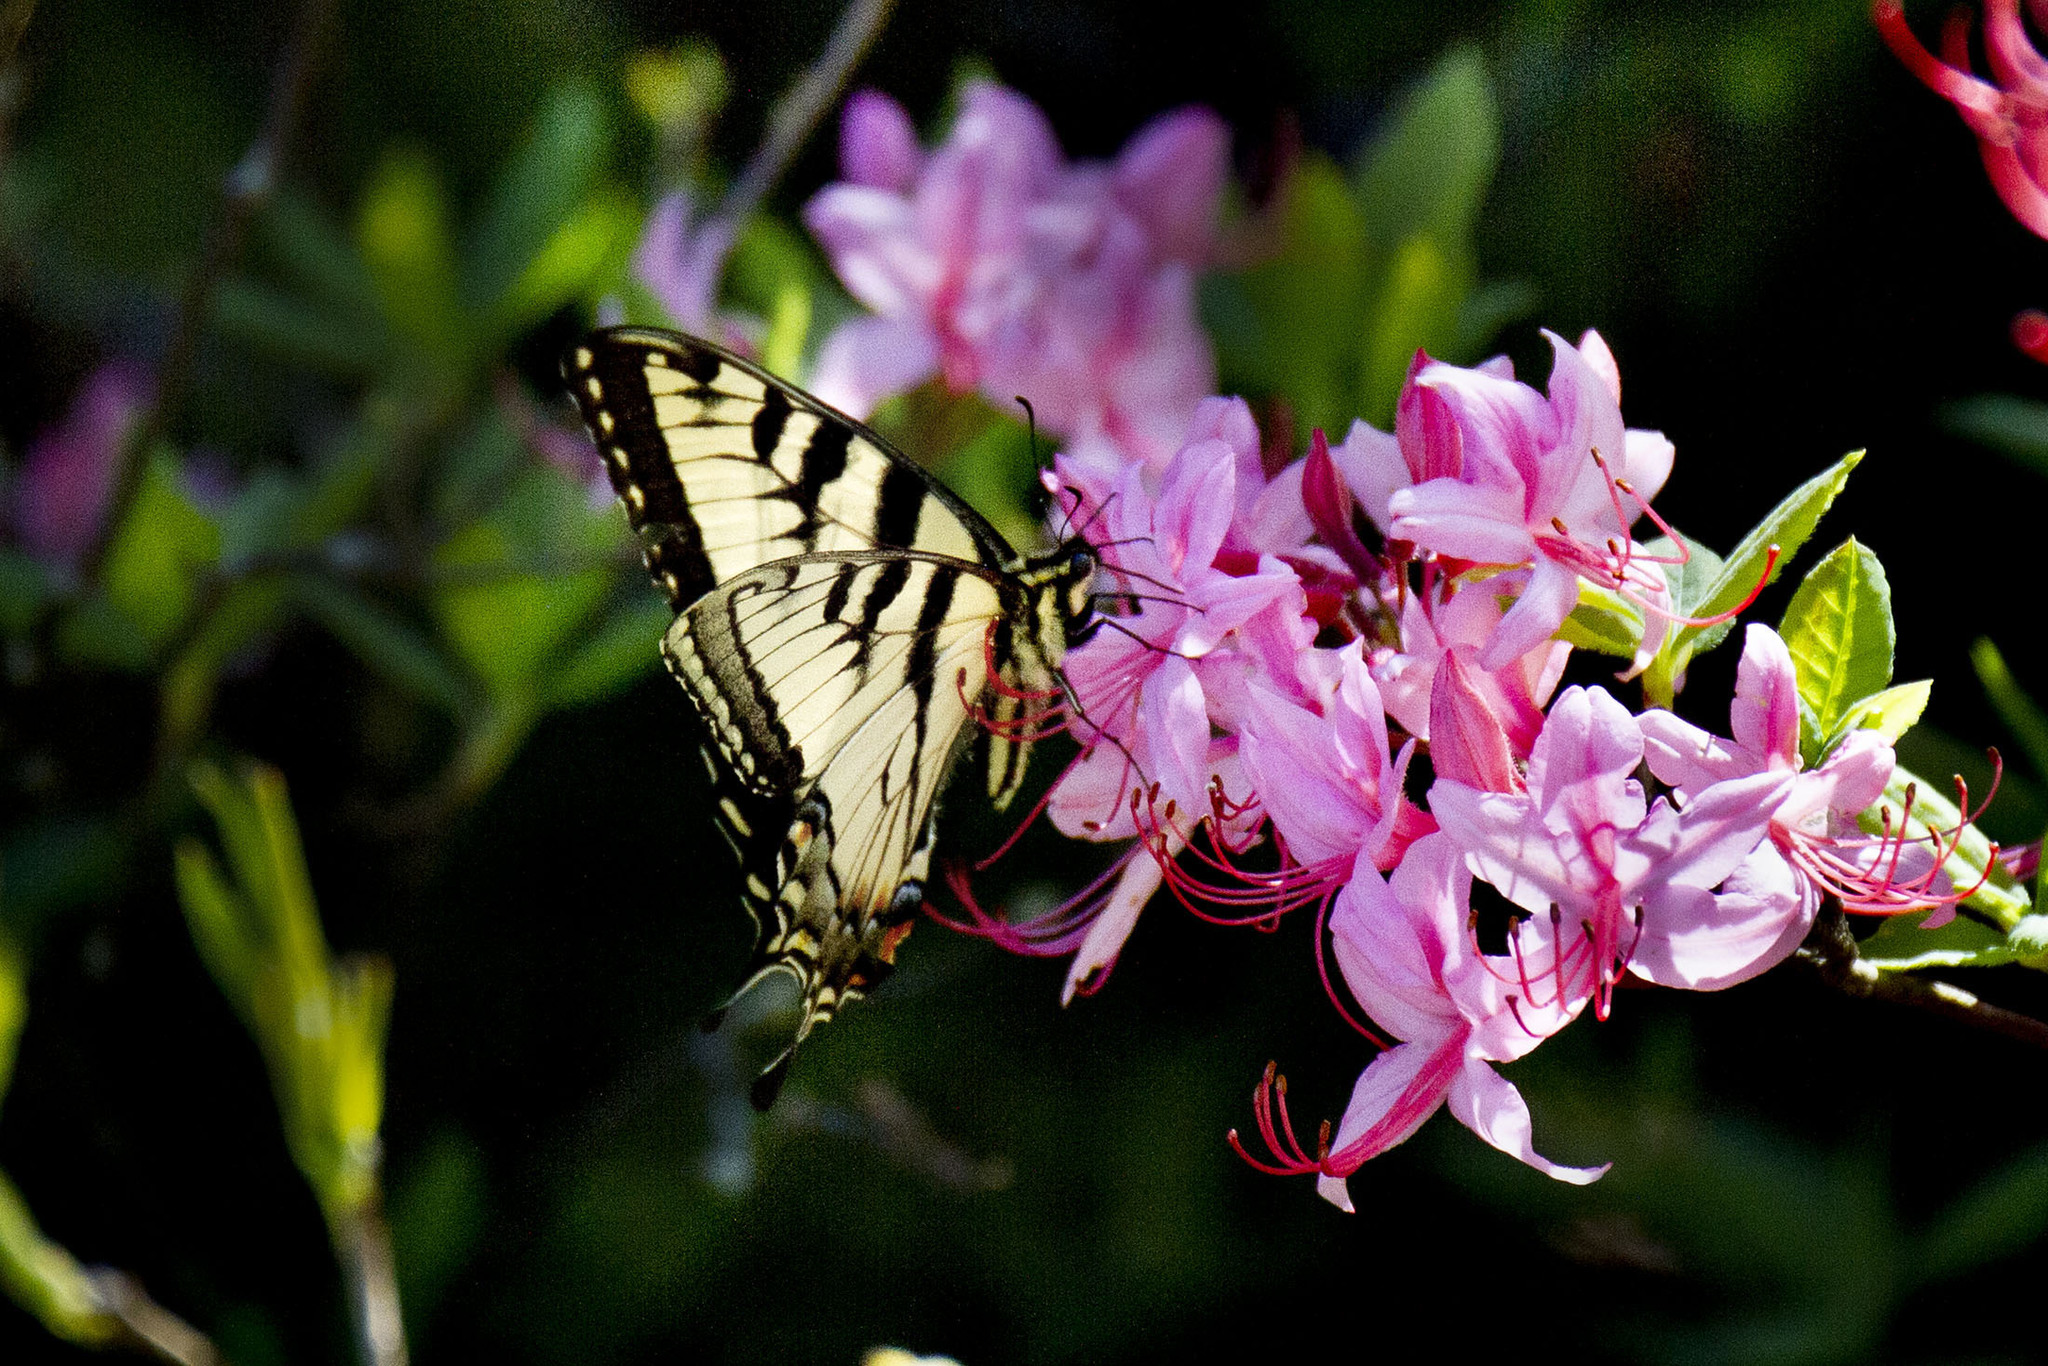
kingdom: Animalia
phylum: Arthropoda
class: Insecta
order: Lepidoptera
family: Papilionidae
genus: Papilio
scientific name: Papilio appalachiensis
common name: Appalachian tiger swallowtail
